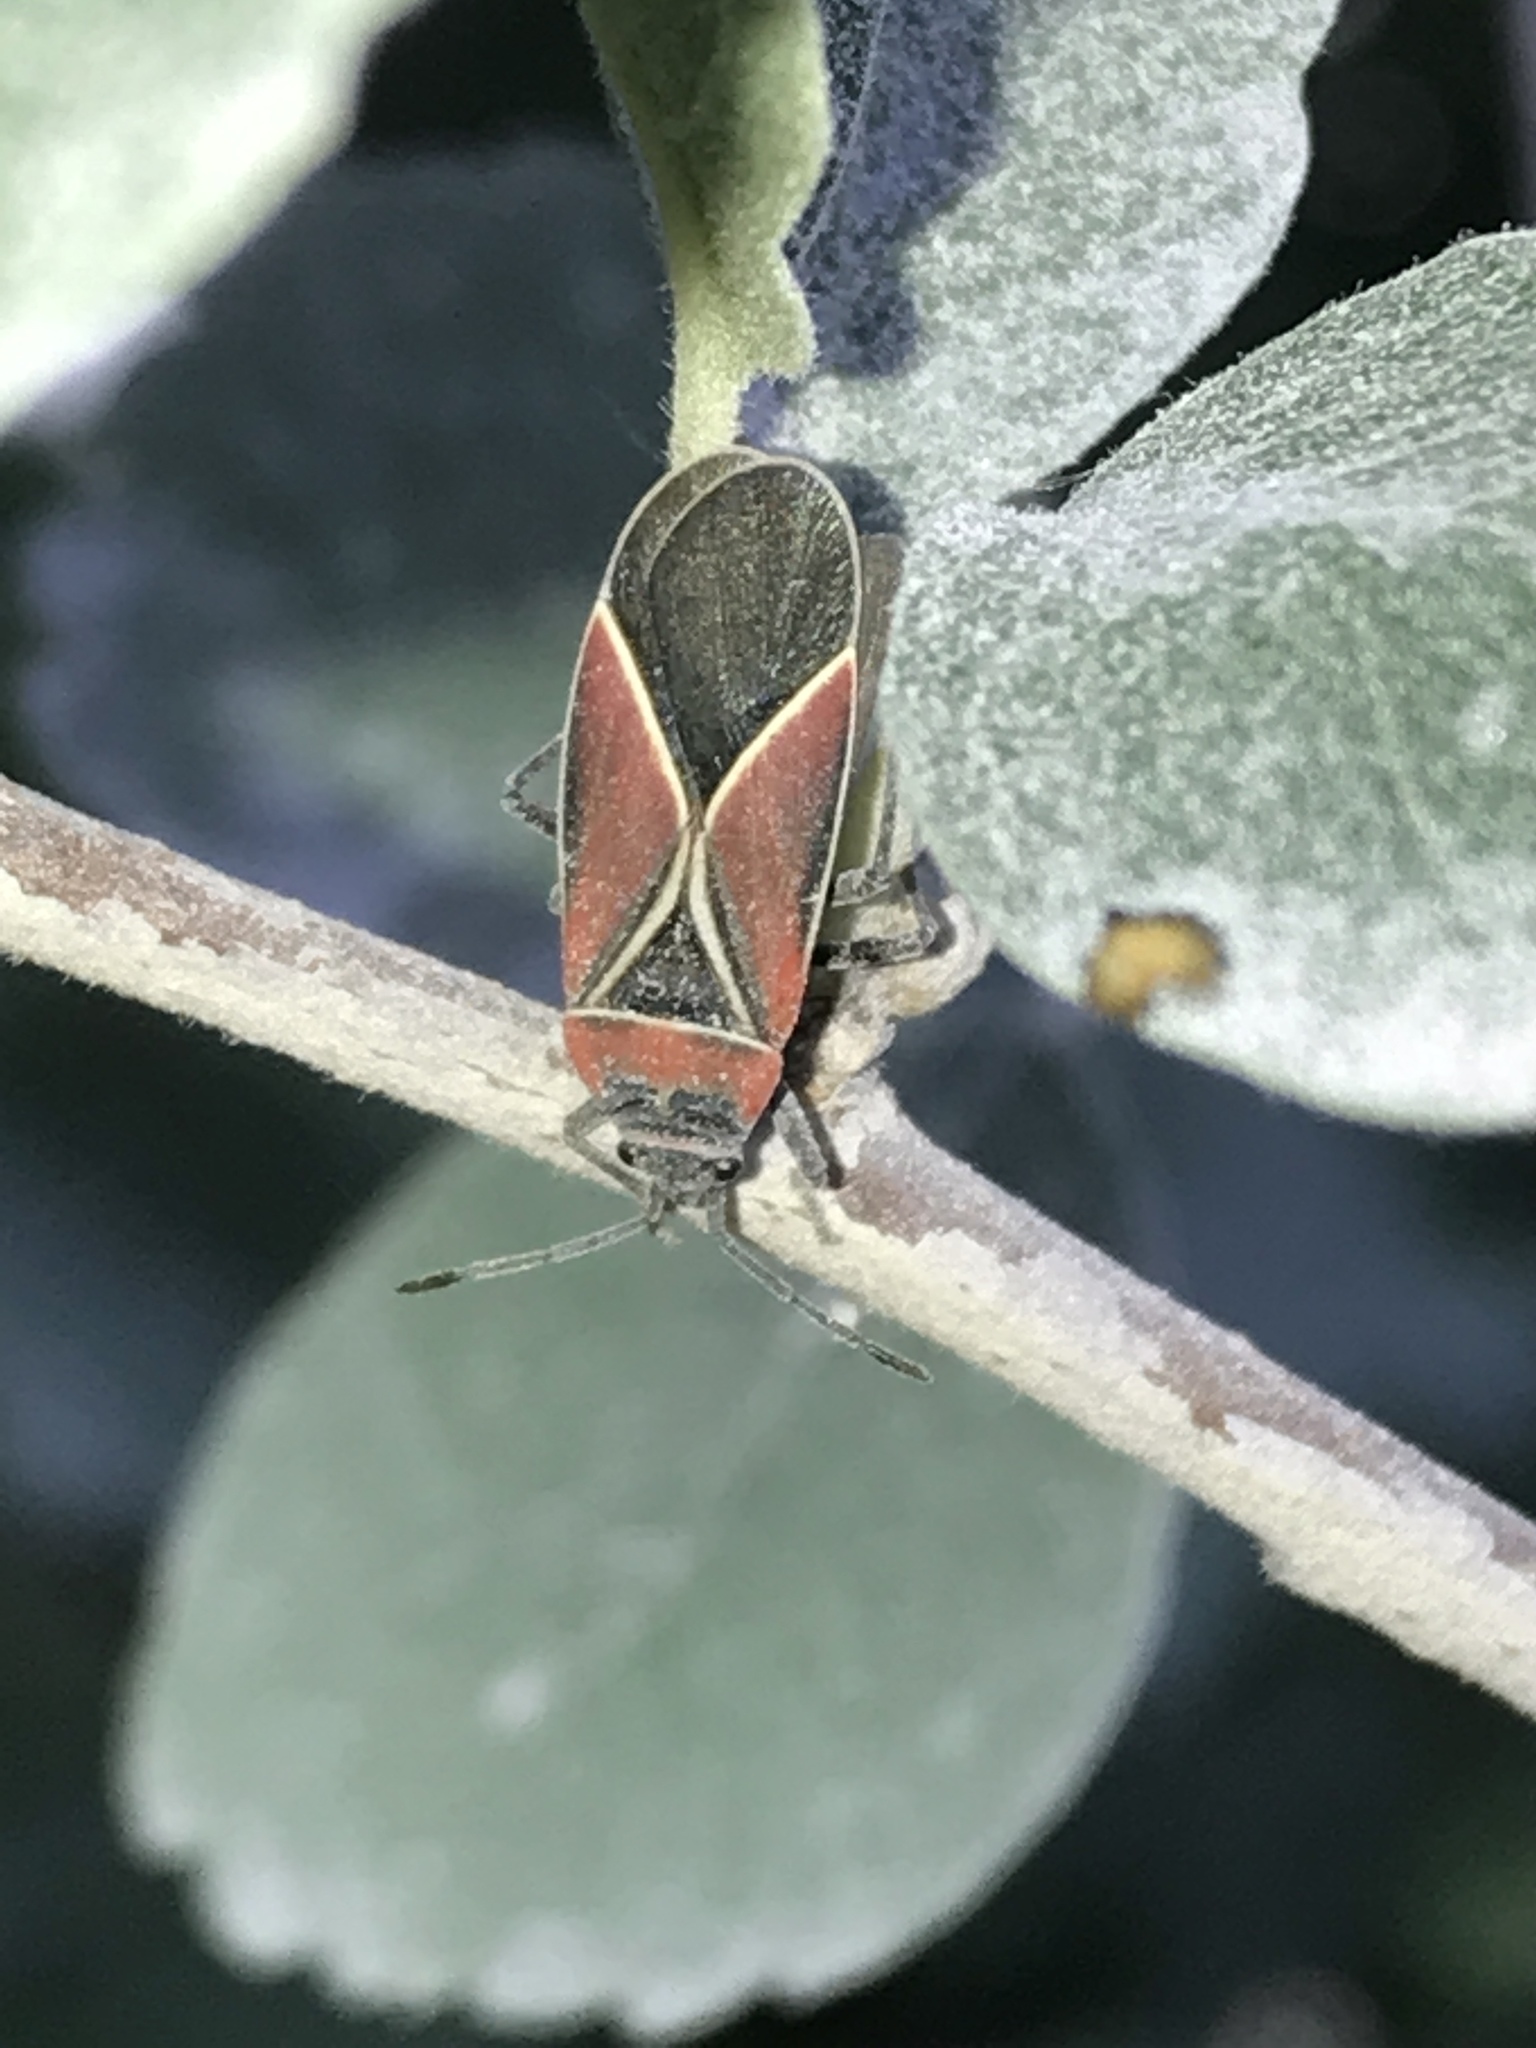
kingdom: Animalia
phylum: Arthropoda
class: Insecta
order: Hemiptera
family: Lygaeidae
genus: Neacoryphus
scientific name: Neacoryphus bicrucis
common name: Lygaeid bug
